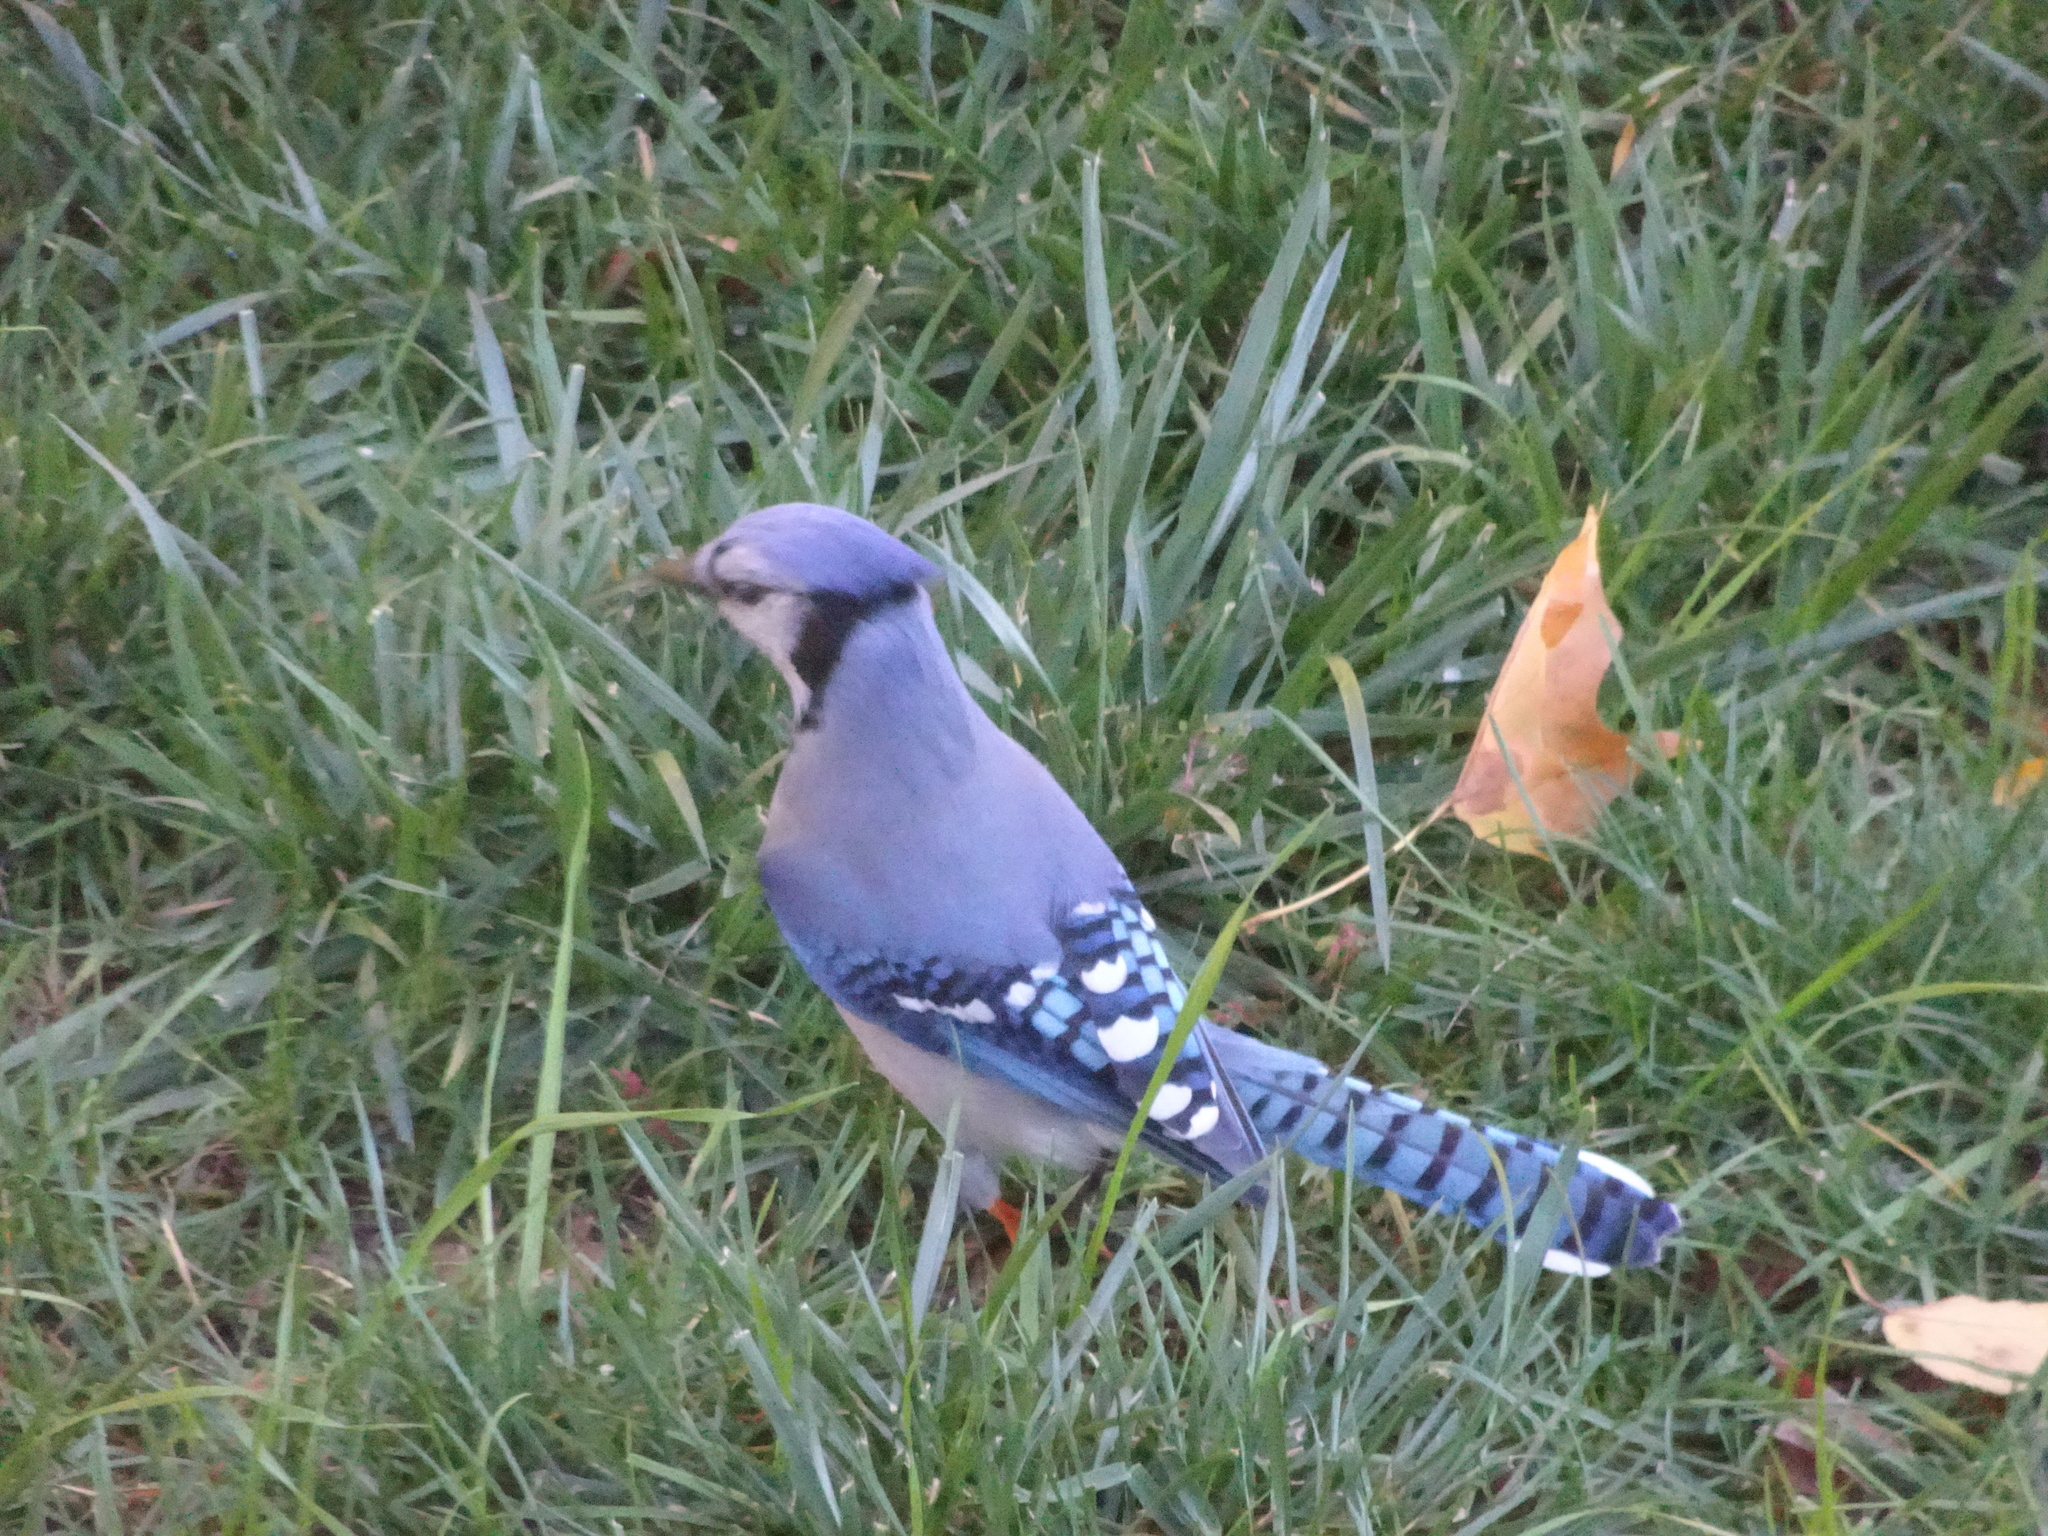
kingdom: Animalia
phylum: Chordata
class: Aves
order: Passeriformes
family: Corvidae
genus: Cyanocitta
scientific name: Cyanocitta cristata
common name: Blue jay
